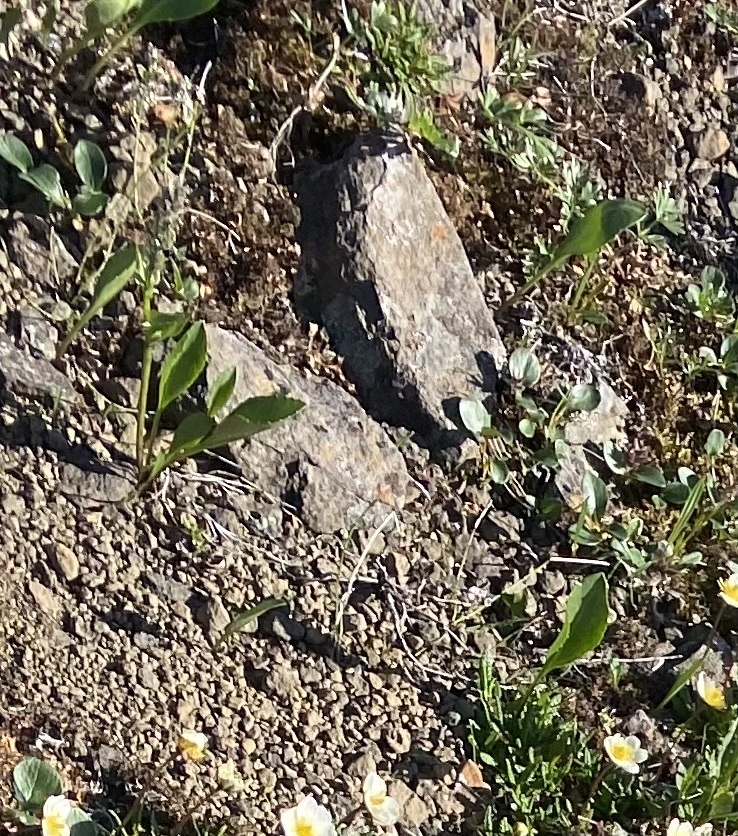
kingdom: Plantae
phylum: Tracheophyta
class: Magnoliopsida
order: Lamiales
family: Plantaginaceae
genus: Lagotis
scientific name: Lagotis glauca
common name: Glaucous weaselsnout
